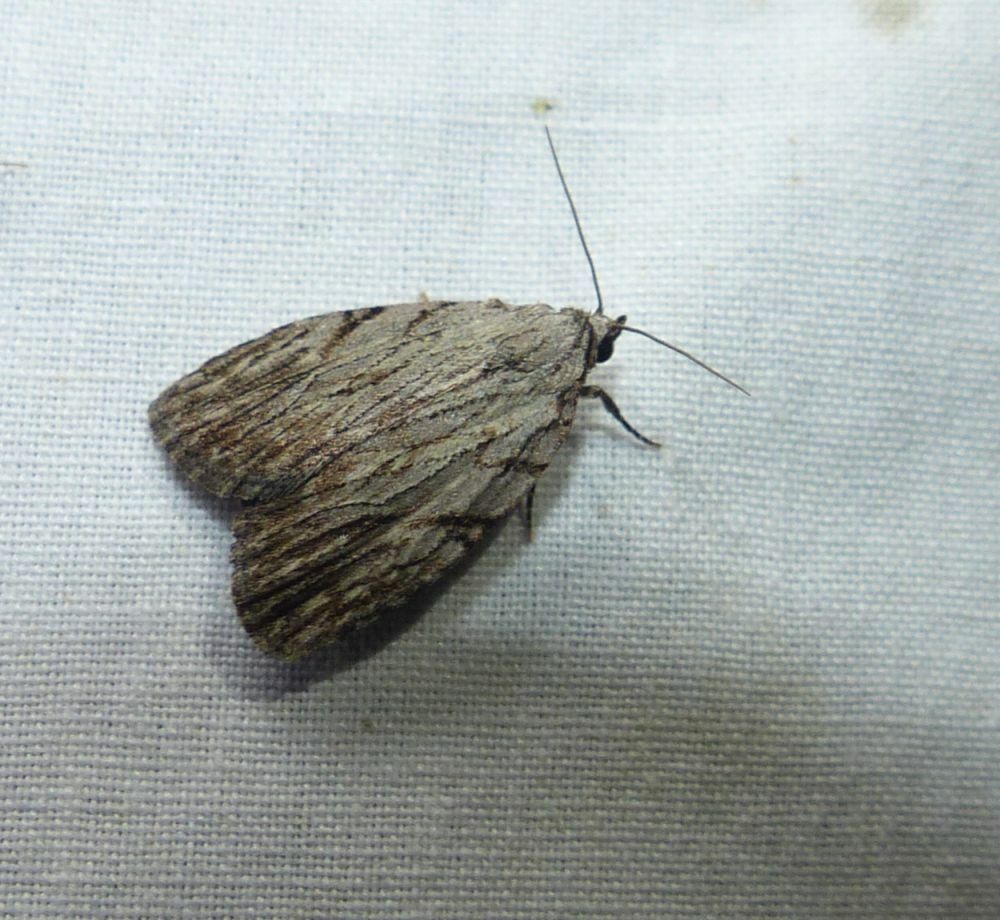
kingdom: Animalia
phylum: Arthropoda
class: Insecta
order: Lepidoptera
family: Noctuidae
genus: Balsa
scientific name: Balsa tristrigella
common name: Three-lined balsa moth
